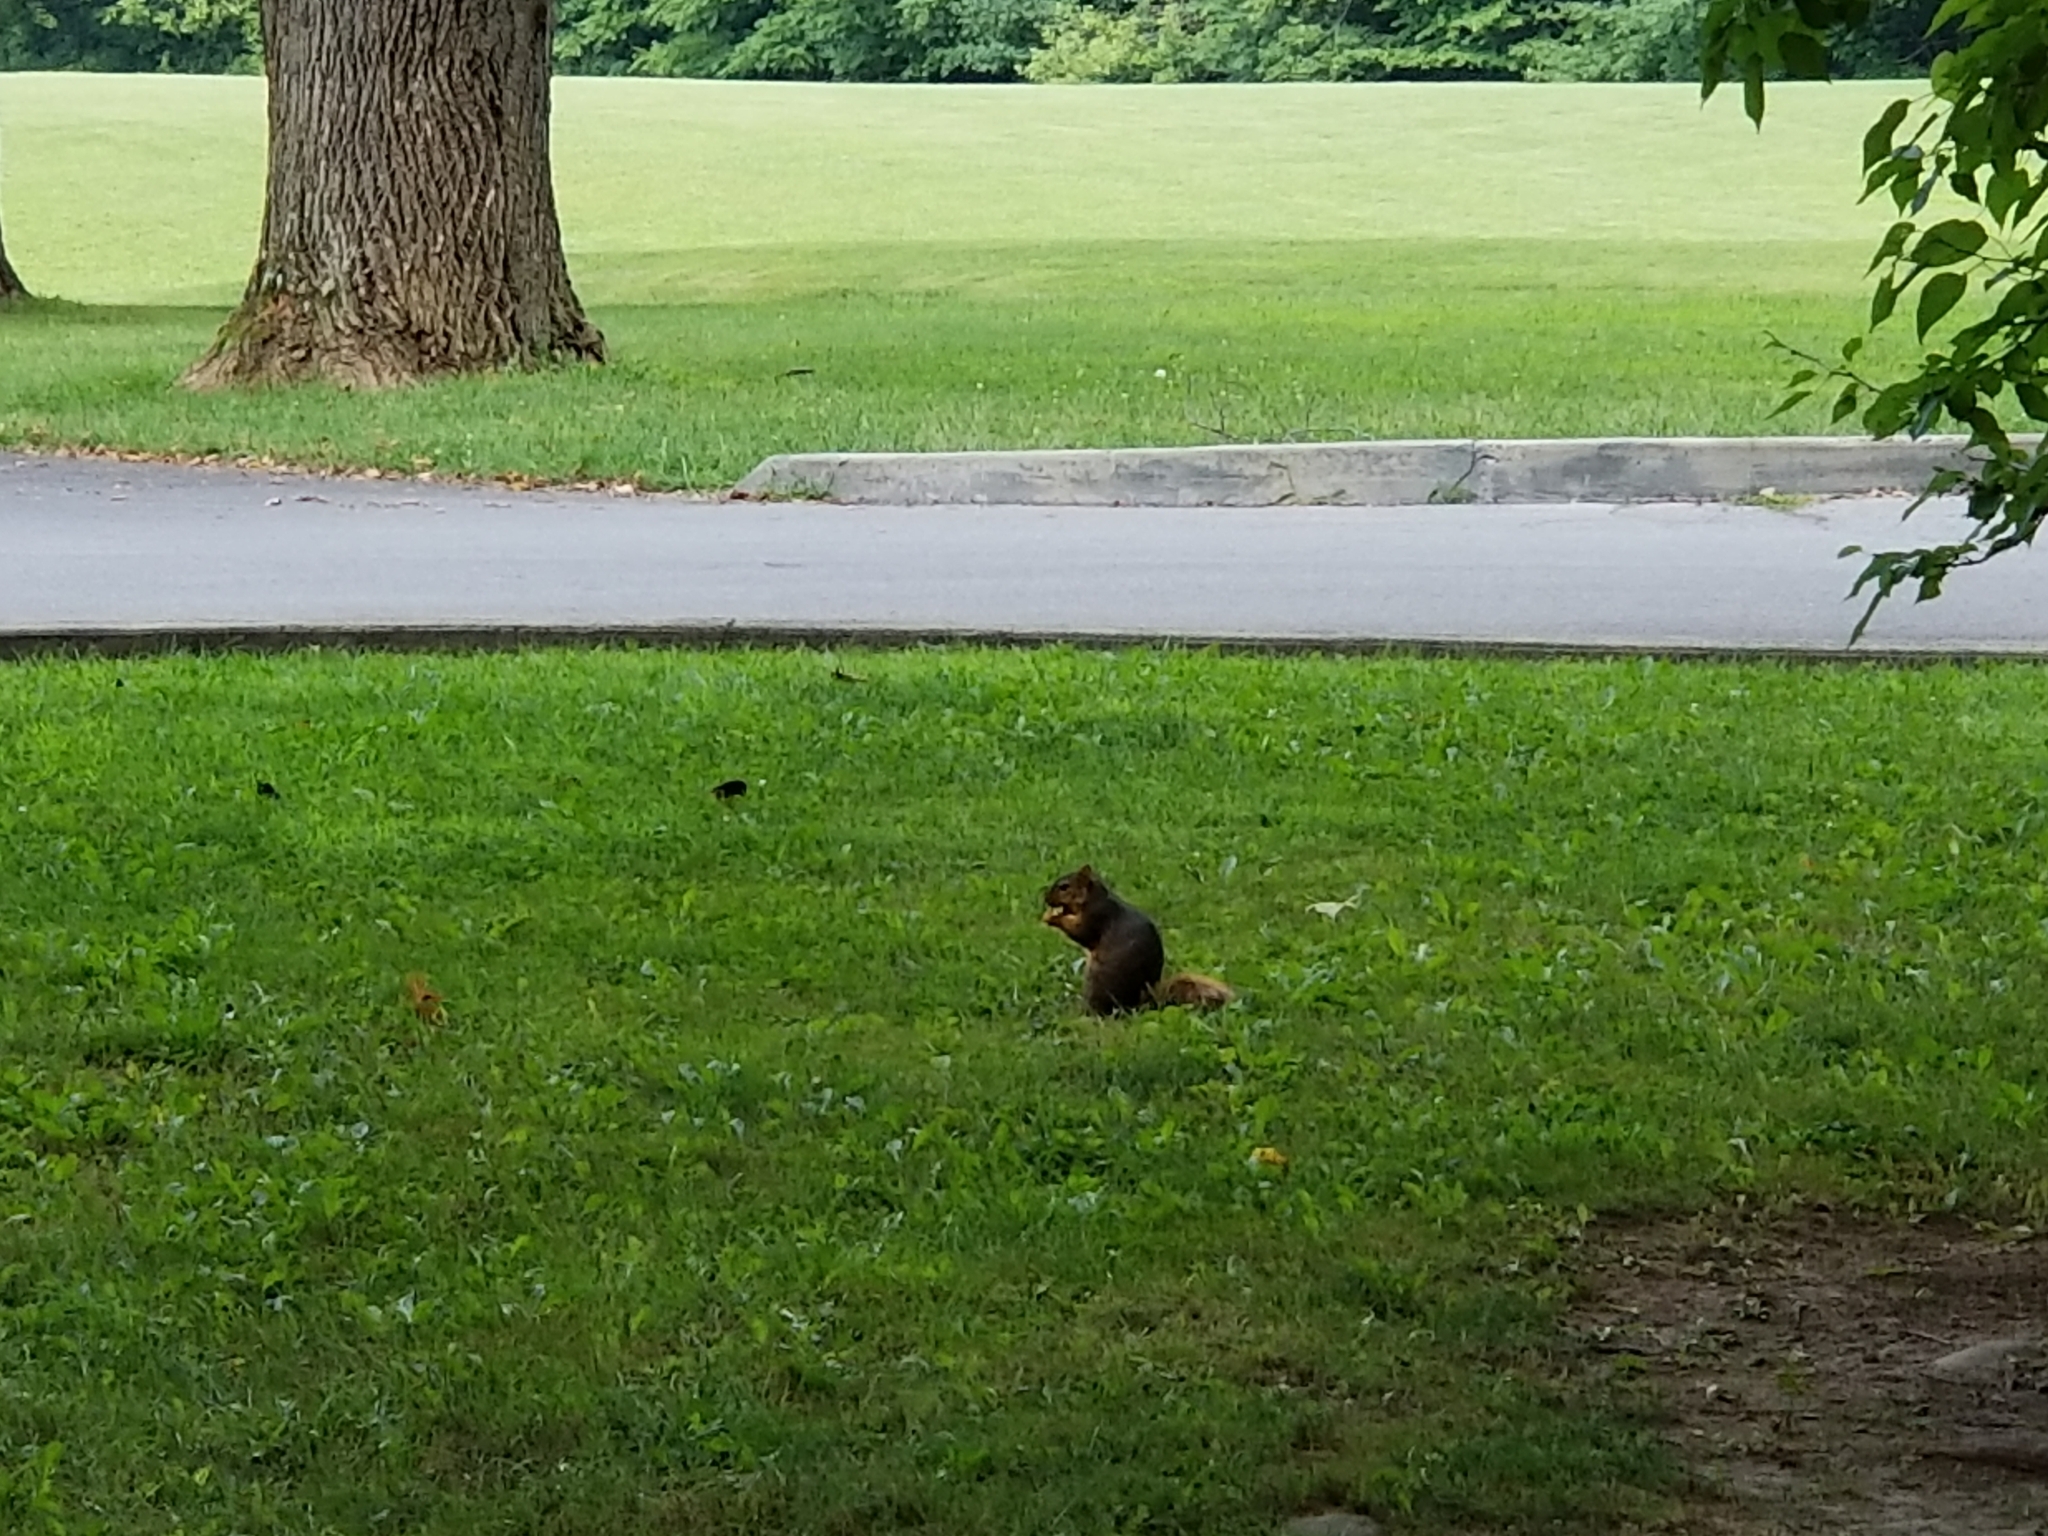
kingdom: Animalia
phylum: Chordata
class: Mammalia
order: Rodentia
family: Sciuridae
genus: Sciurus
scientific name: Sciurus niger
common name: Fox squirrel
